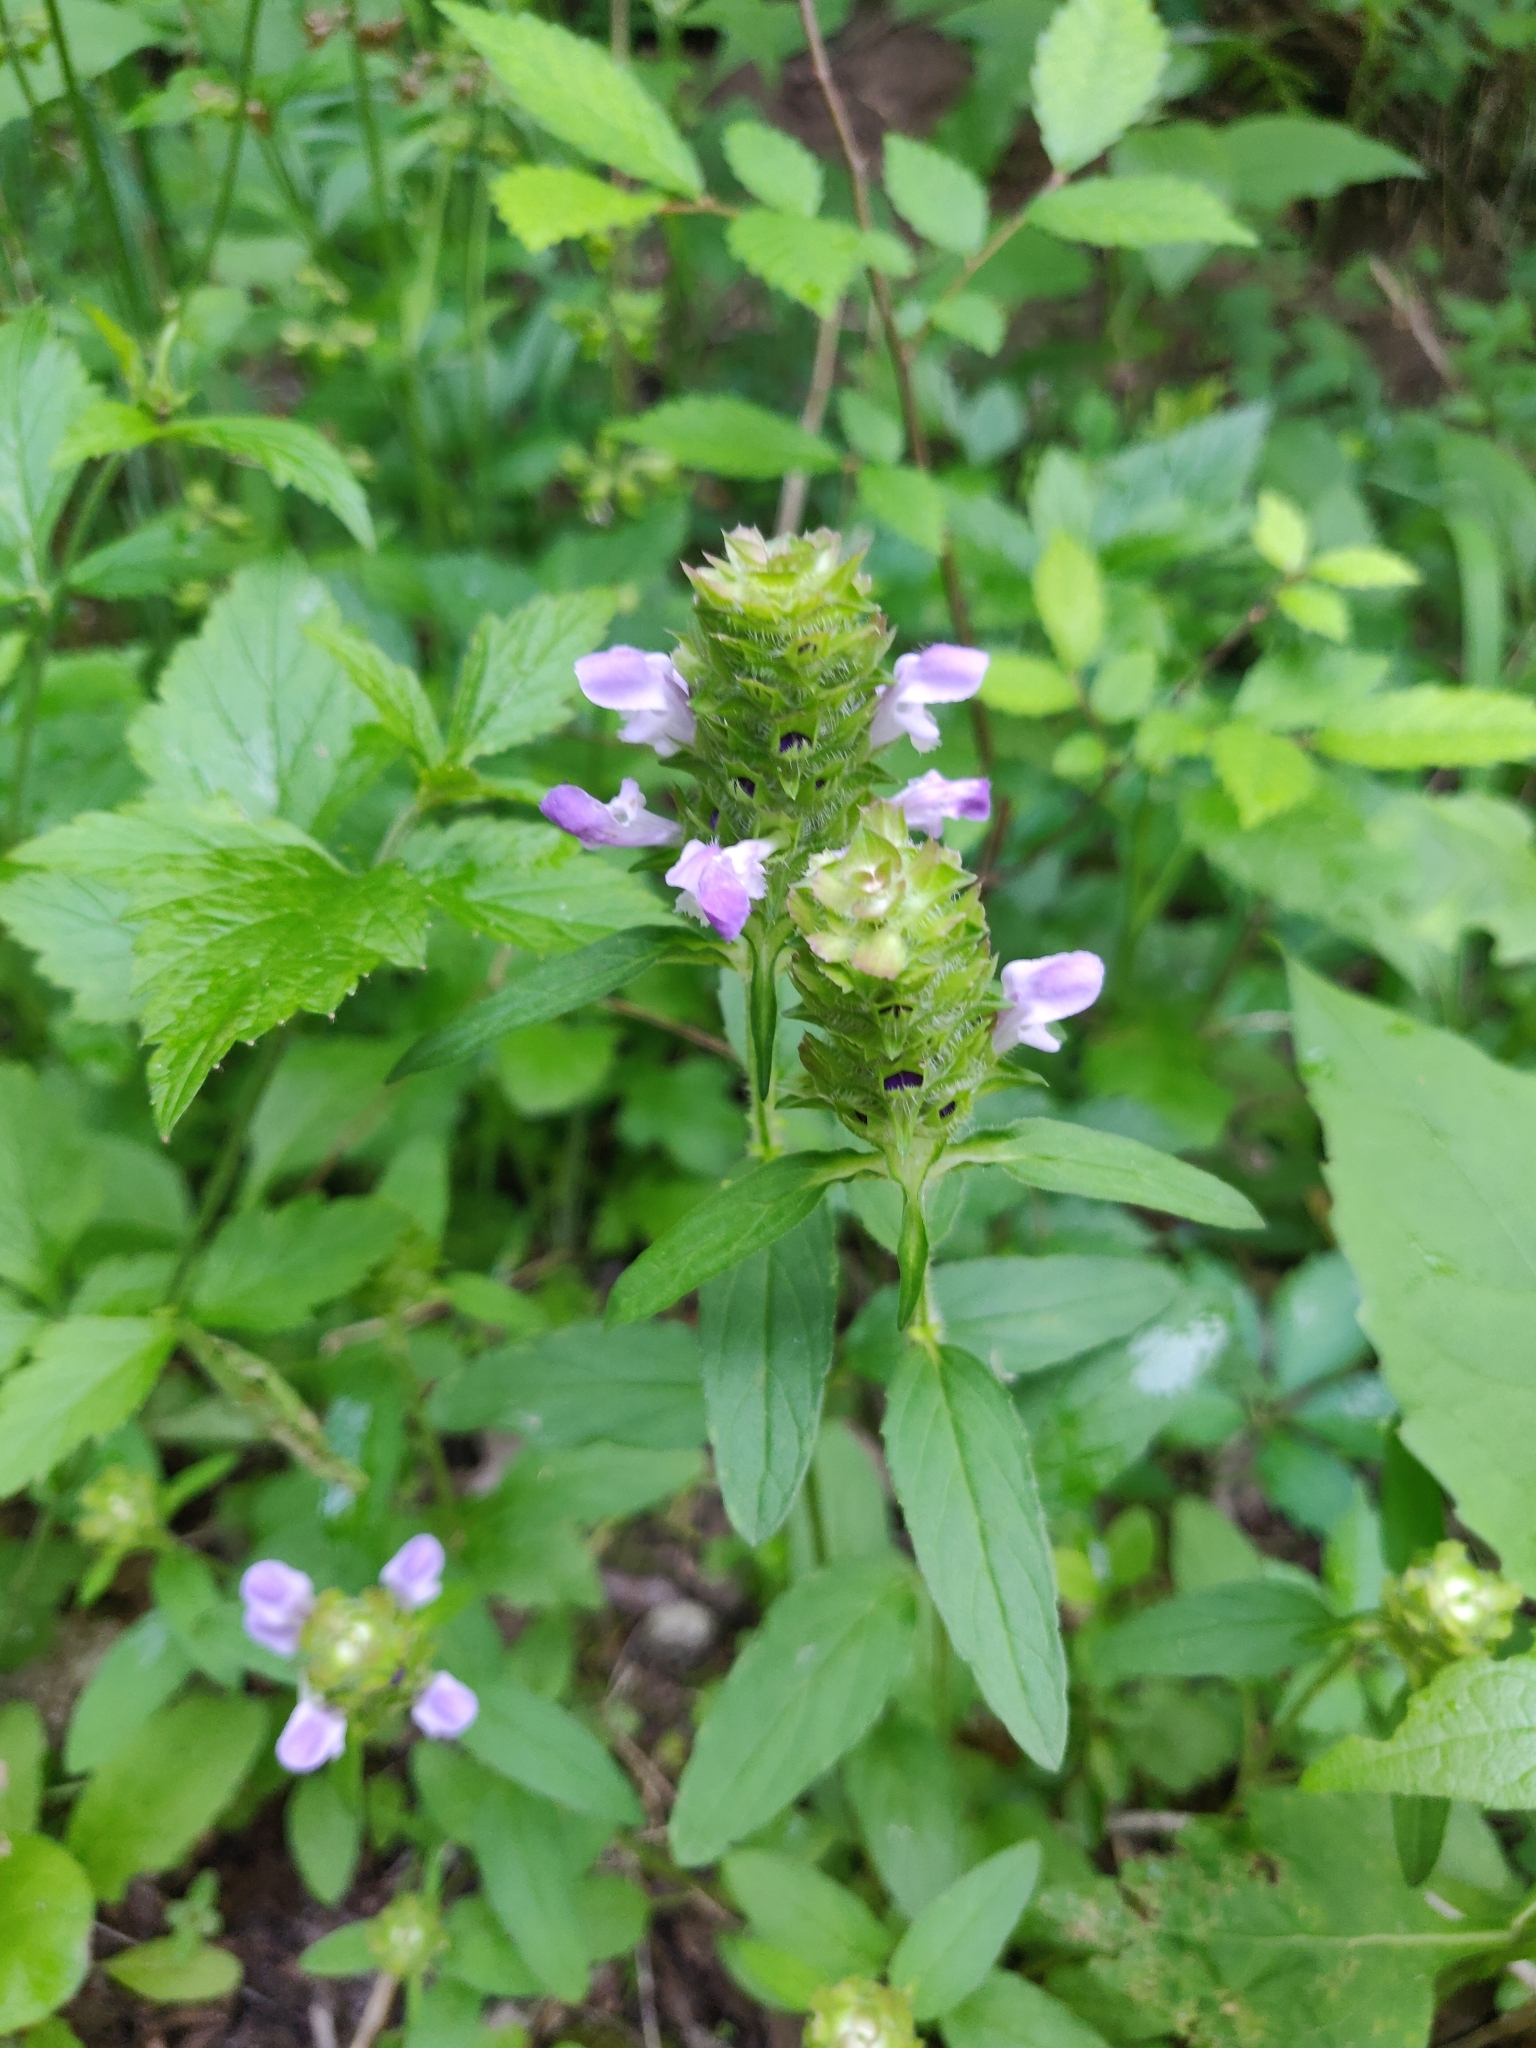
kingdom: Plantae
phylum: Tracheophyta
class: Magnoliopsida
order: Lamiales
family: Lamiaceae
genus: Prunella
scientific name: Prunella vulgaris
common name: Heal-all
